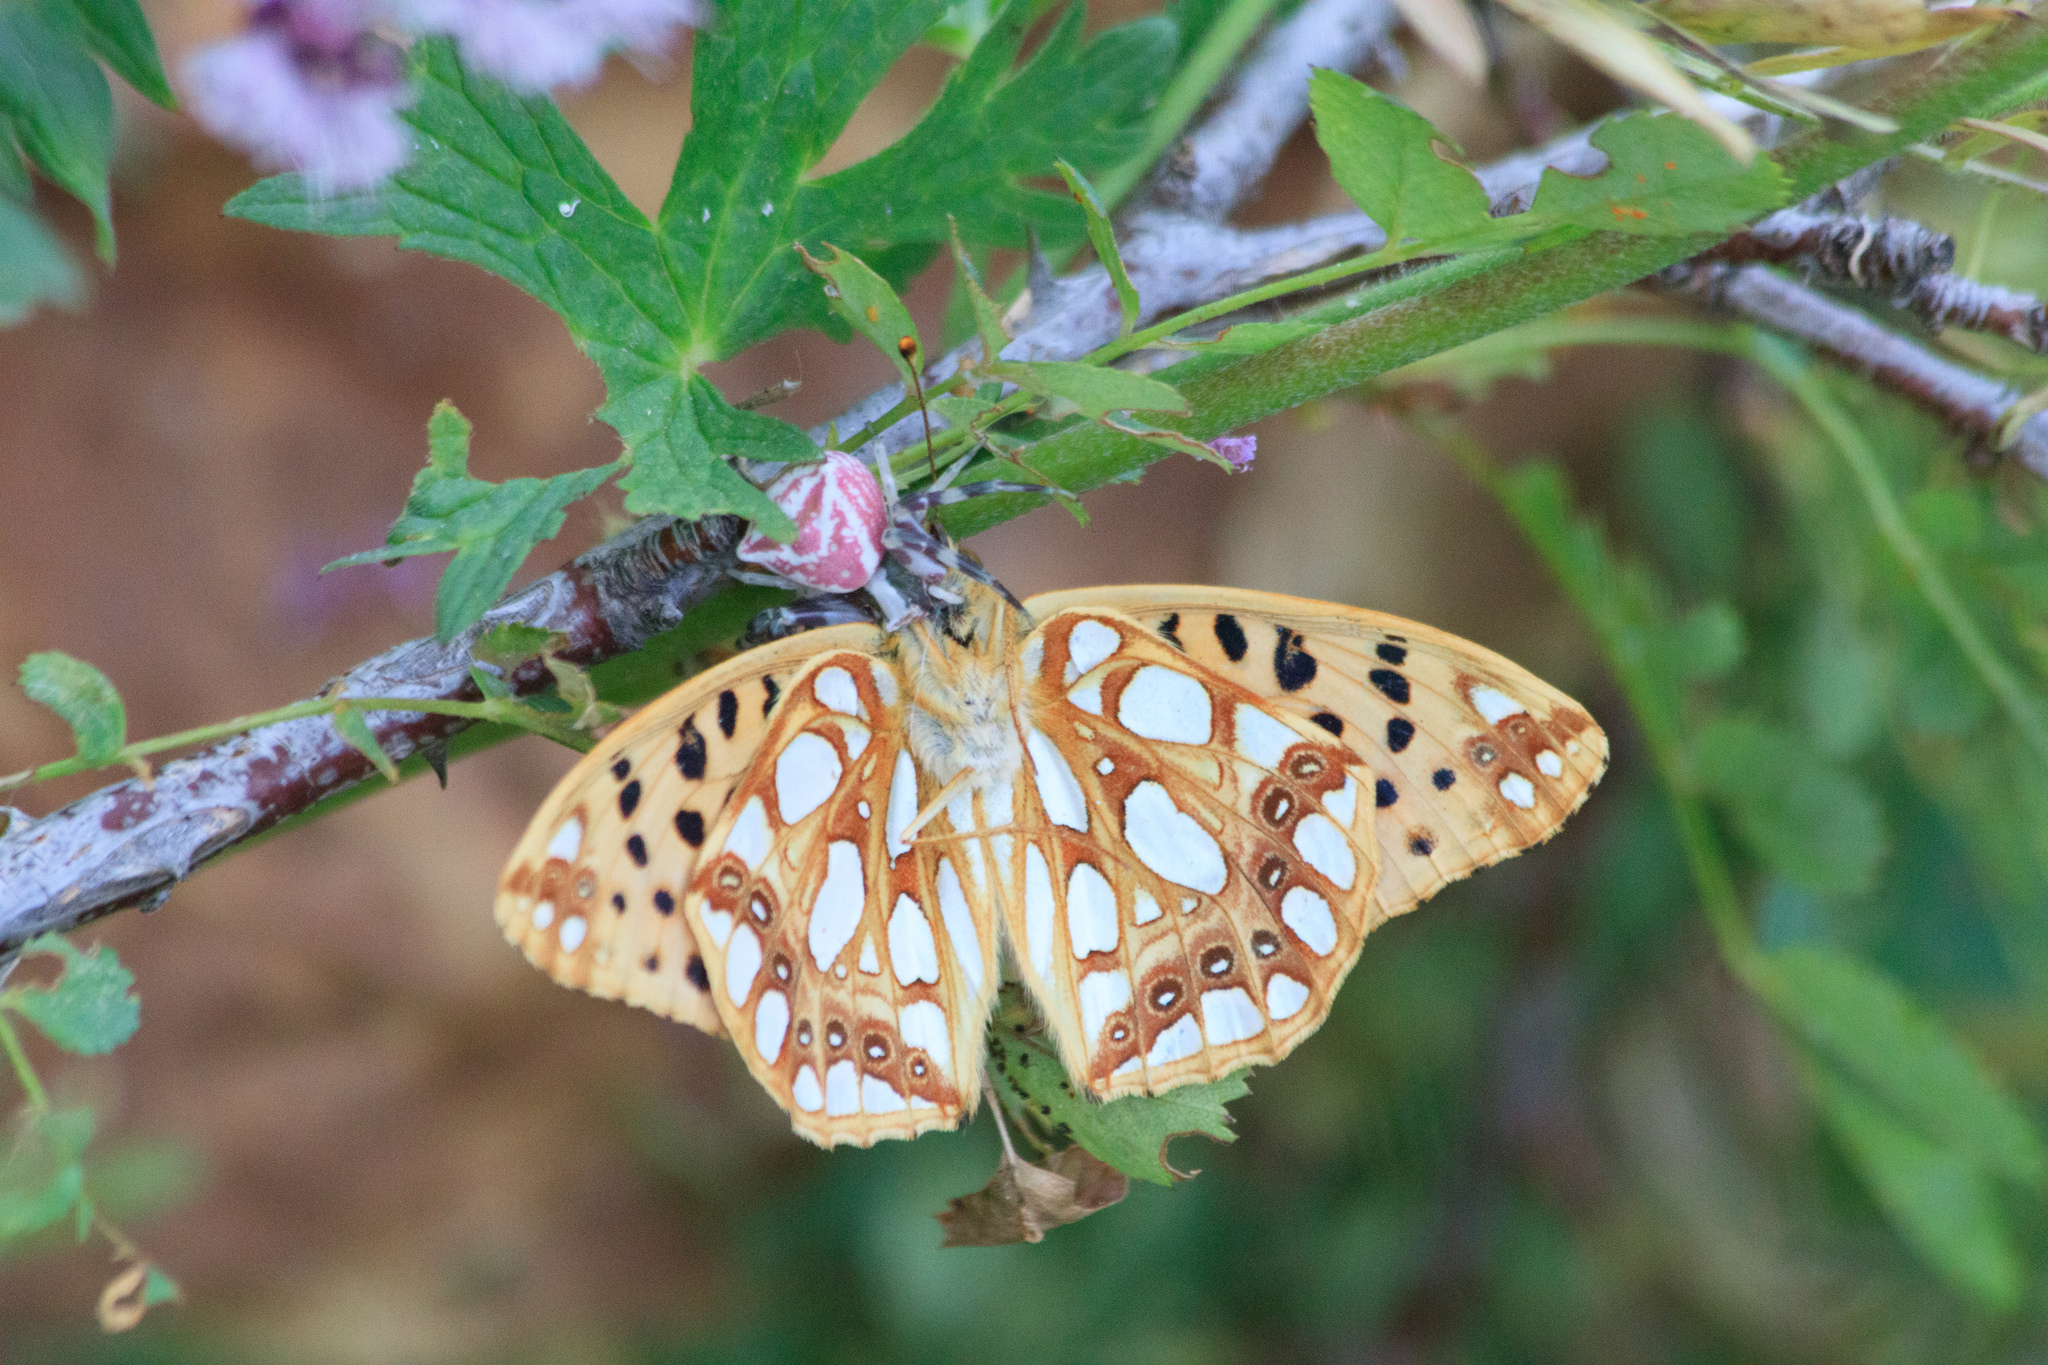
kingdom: Animalia
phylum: Arthropoda
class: Insecta
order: Lepidoptera
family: Nymphalidae
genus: Issoria
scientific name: Issoria lathonia
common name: Queen of spain fritillary
